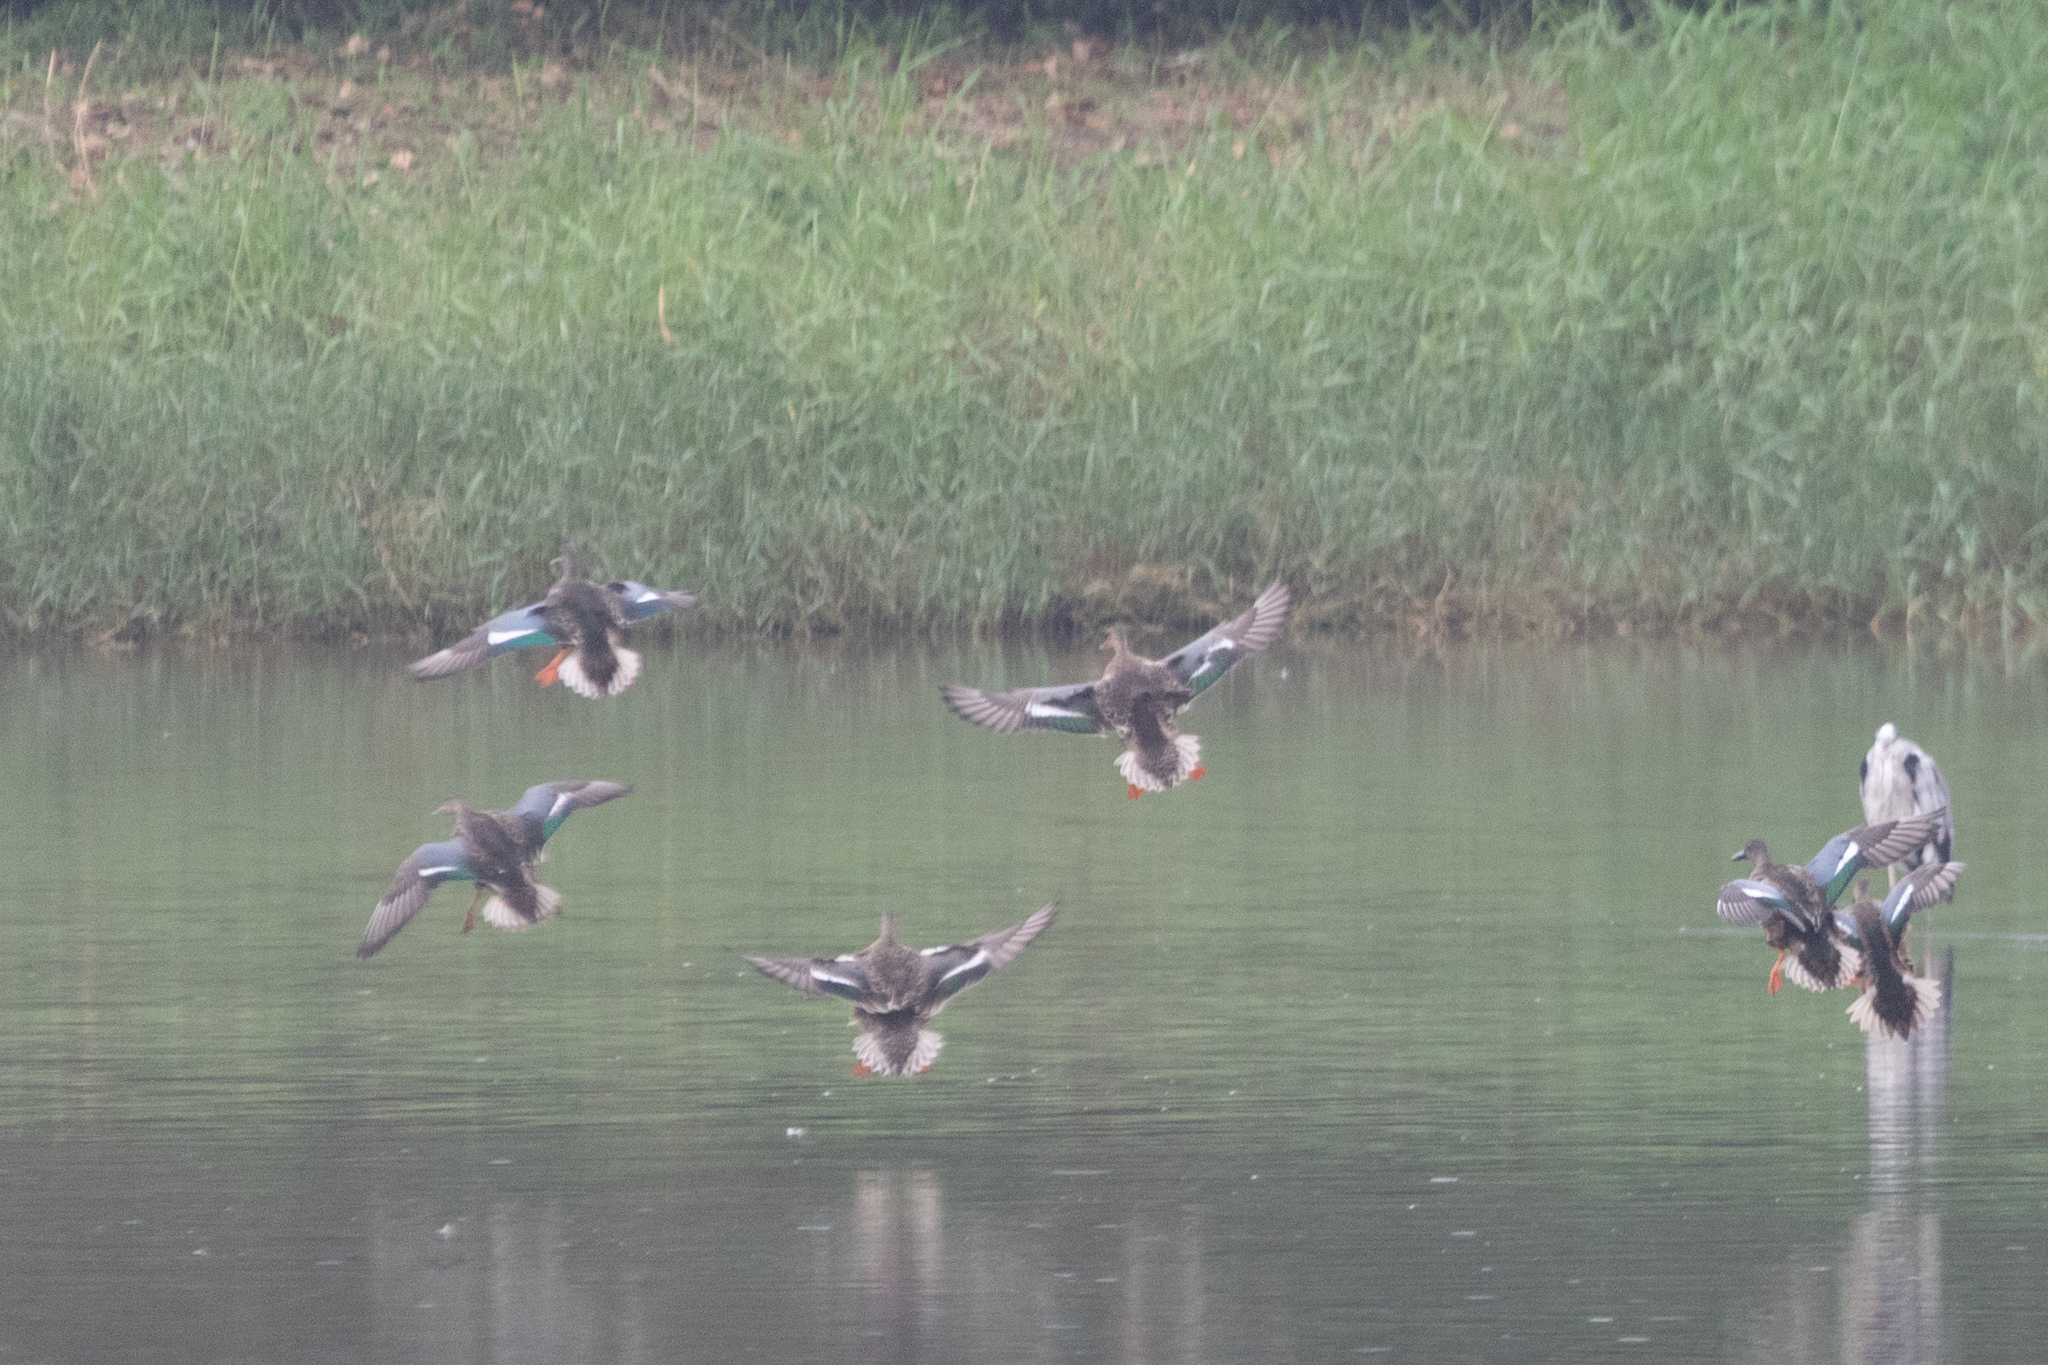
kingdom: Animalia
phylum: Chordata
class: Aves
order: Anseriformes
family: Anatidae
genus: Spatula
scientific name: Spatula clypeata
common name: Northern shoveler
